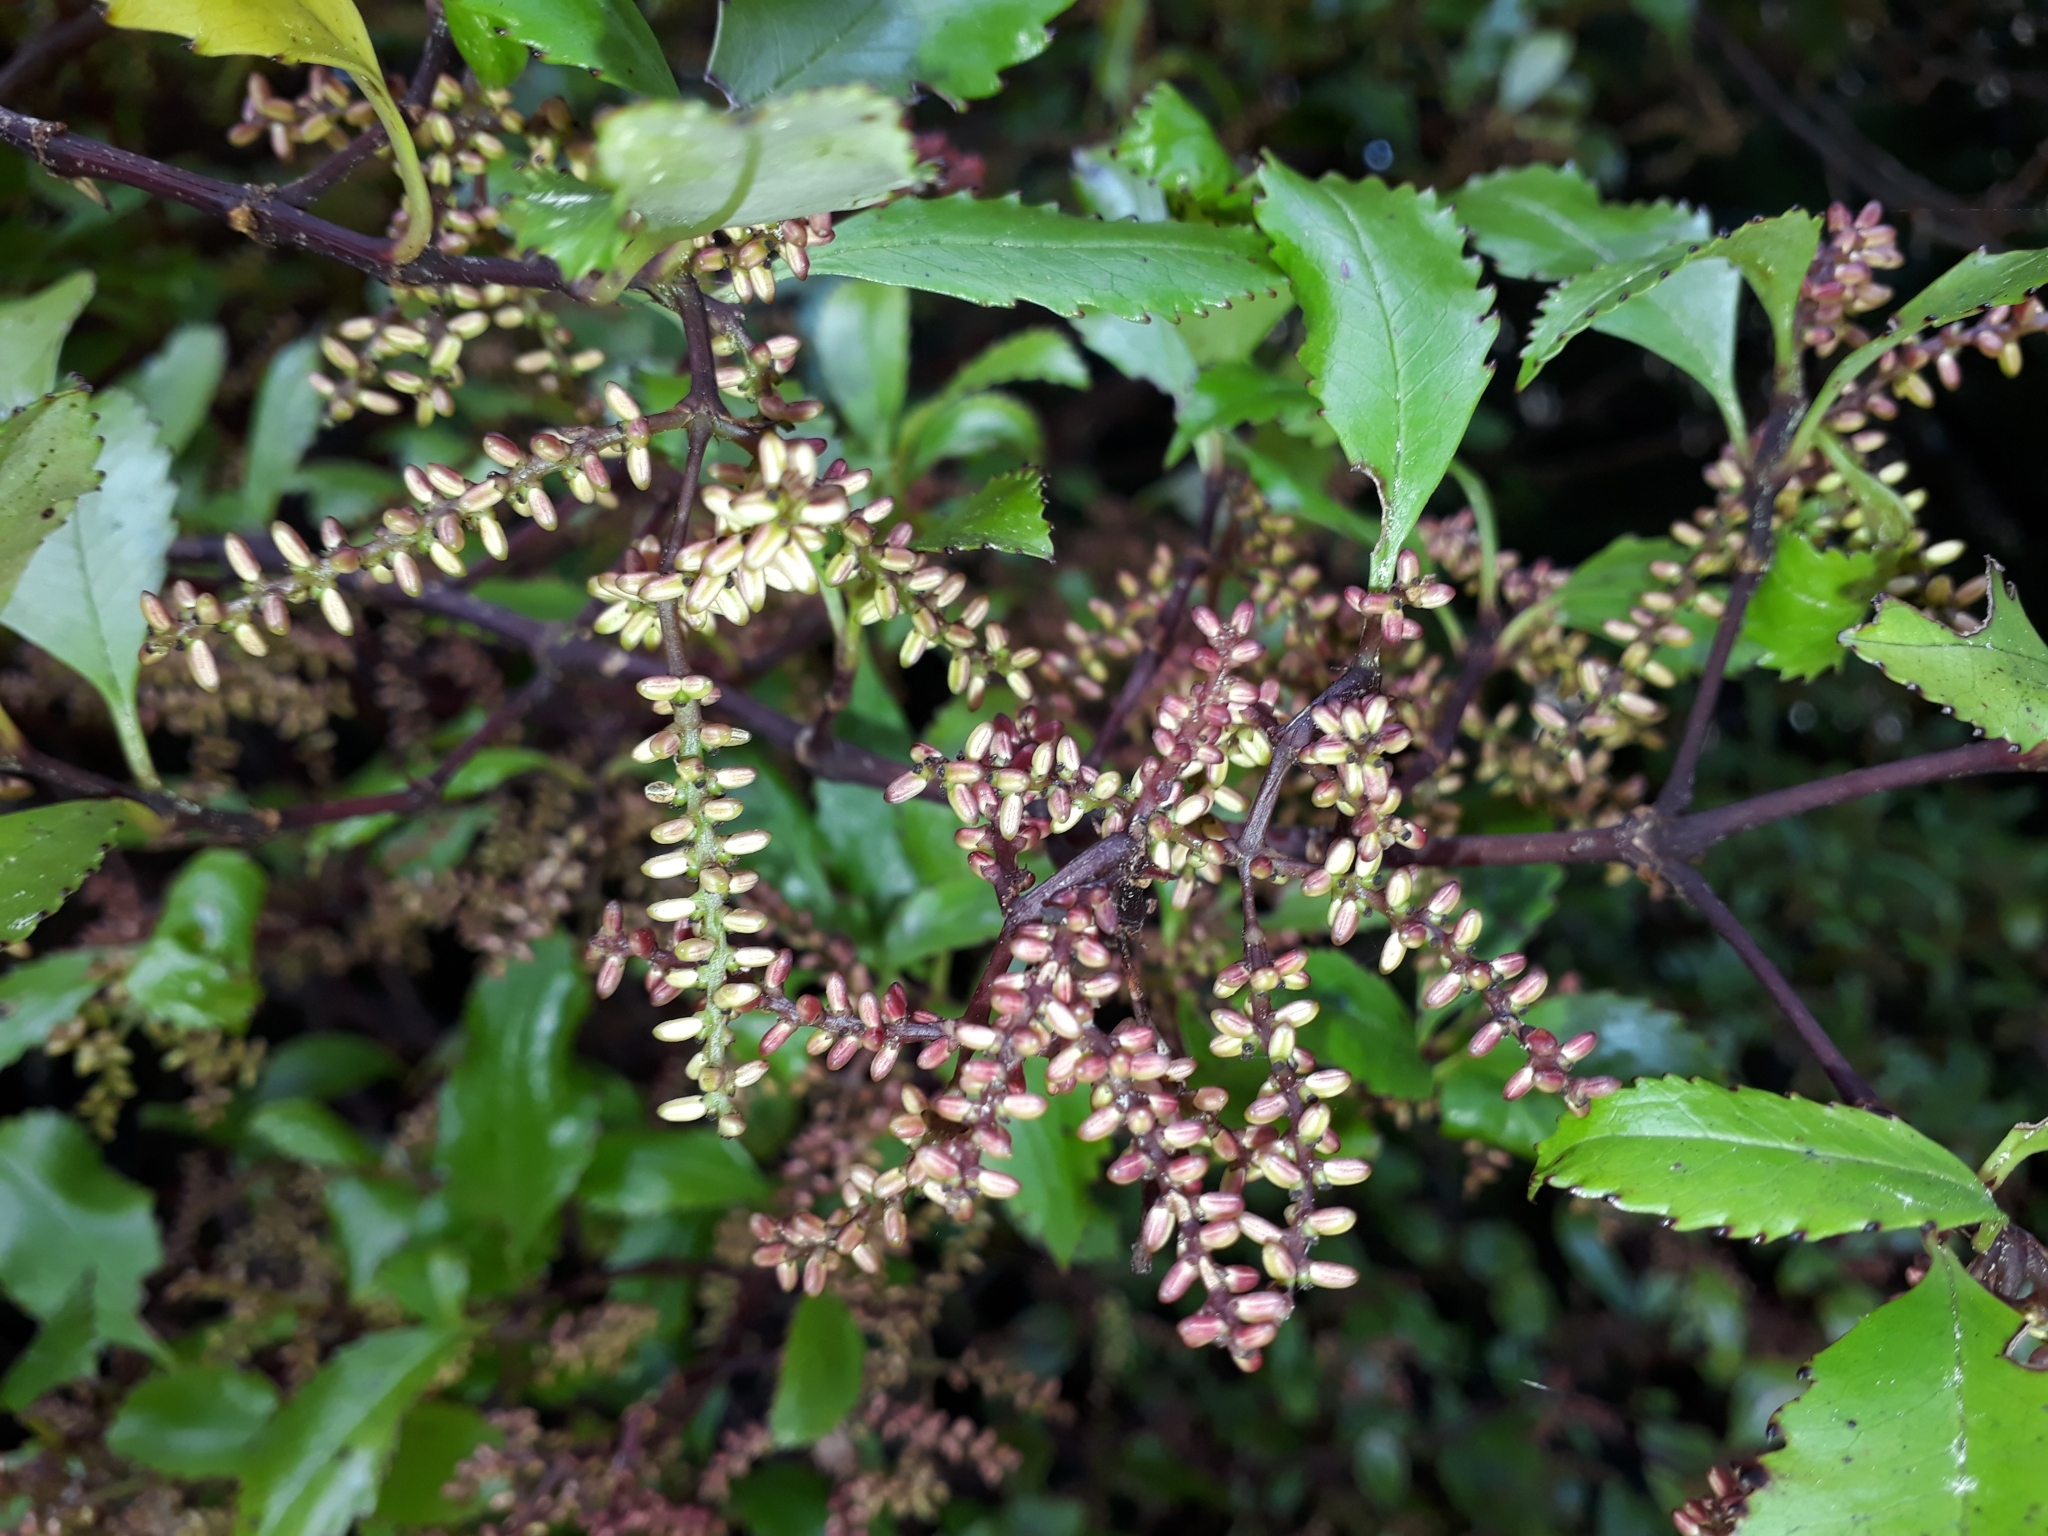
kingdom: Plantae
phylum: Tracheophyta
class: Magnoliopsida
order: Chloranthales
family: Chloranthaceae
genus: Ascarina
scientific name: Ascarina lucida
